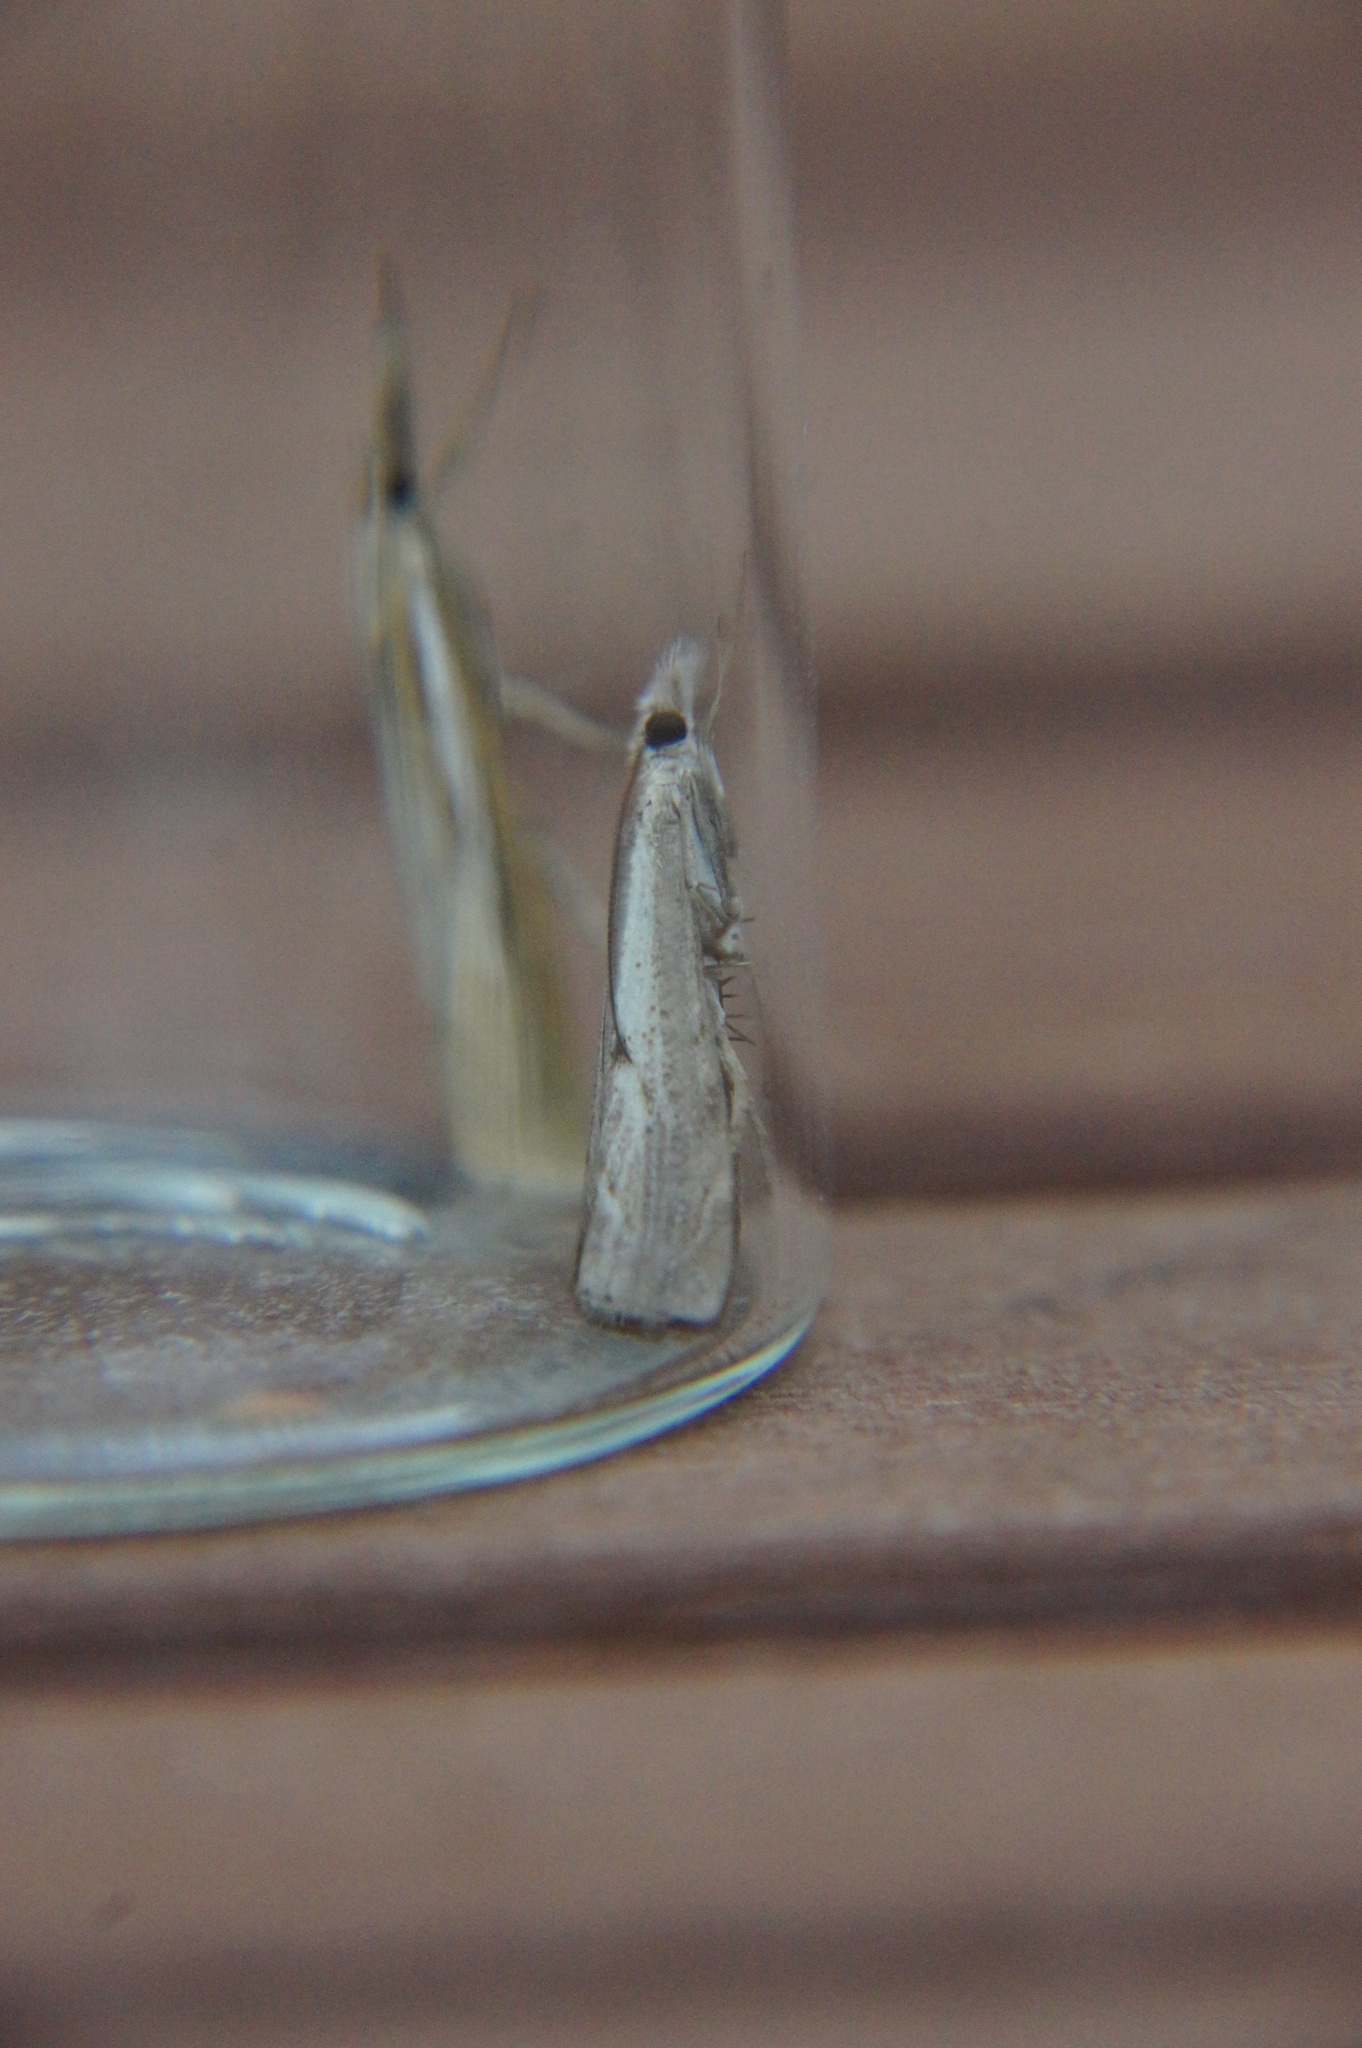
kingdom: Animalia
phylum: Arthropoda
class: Insecta
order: Lepidoptera
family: Crambidae
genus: Agriphila
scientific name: Agriphila geniculea
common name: Elbow-stripe grass-veneer
